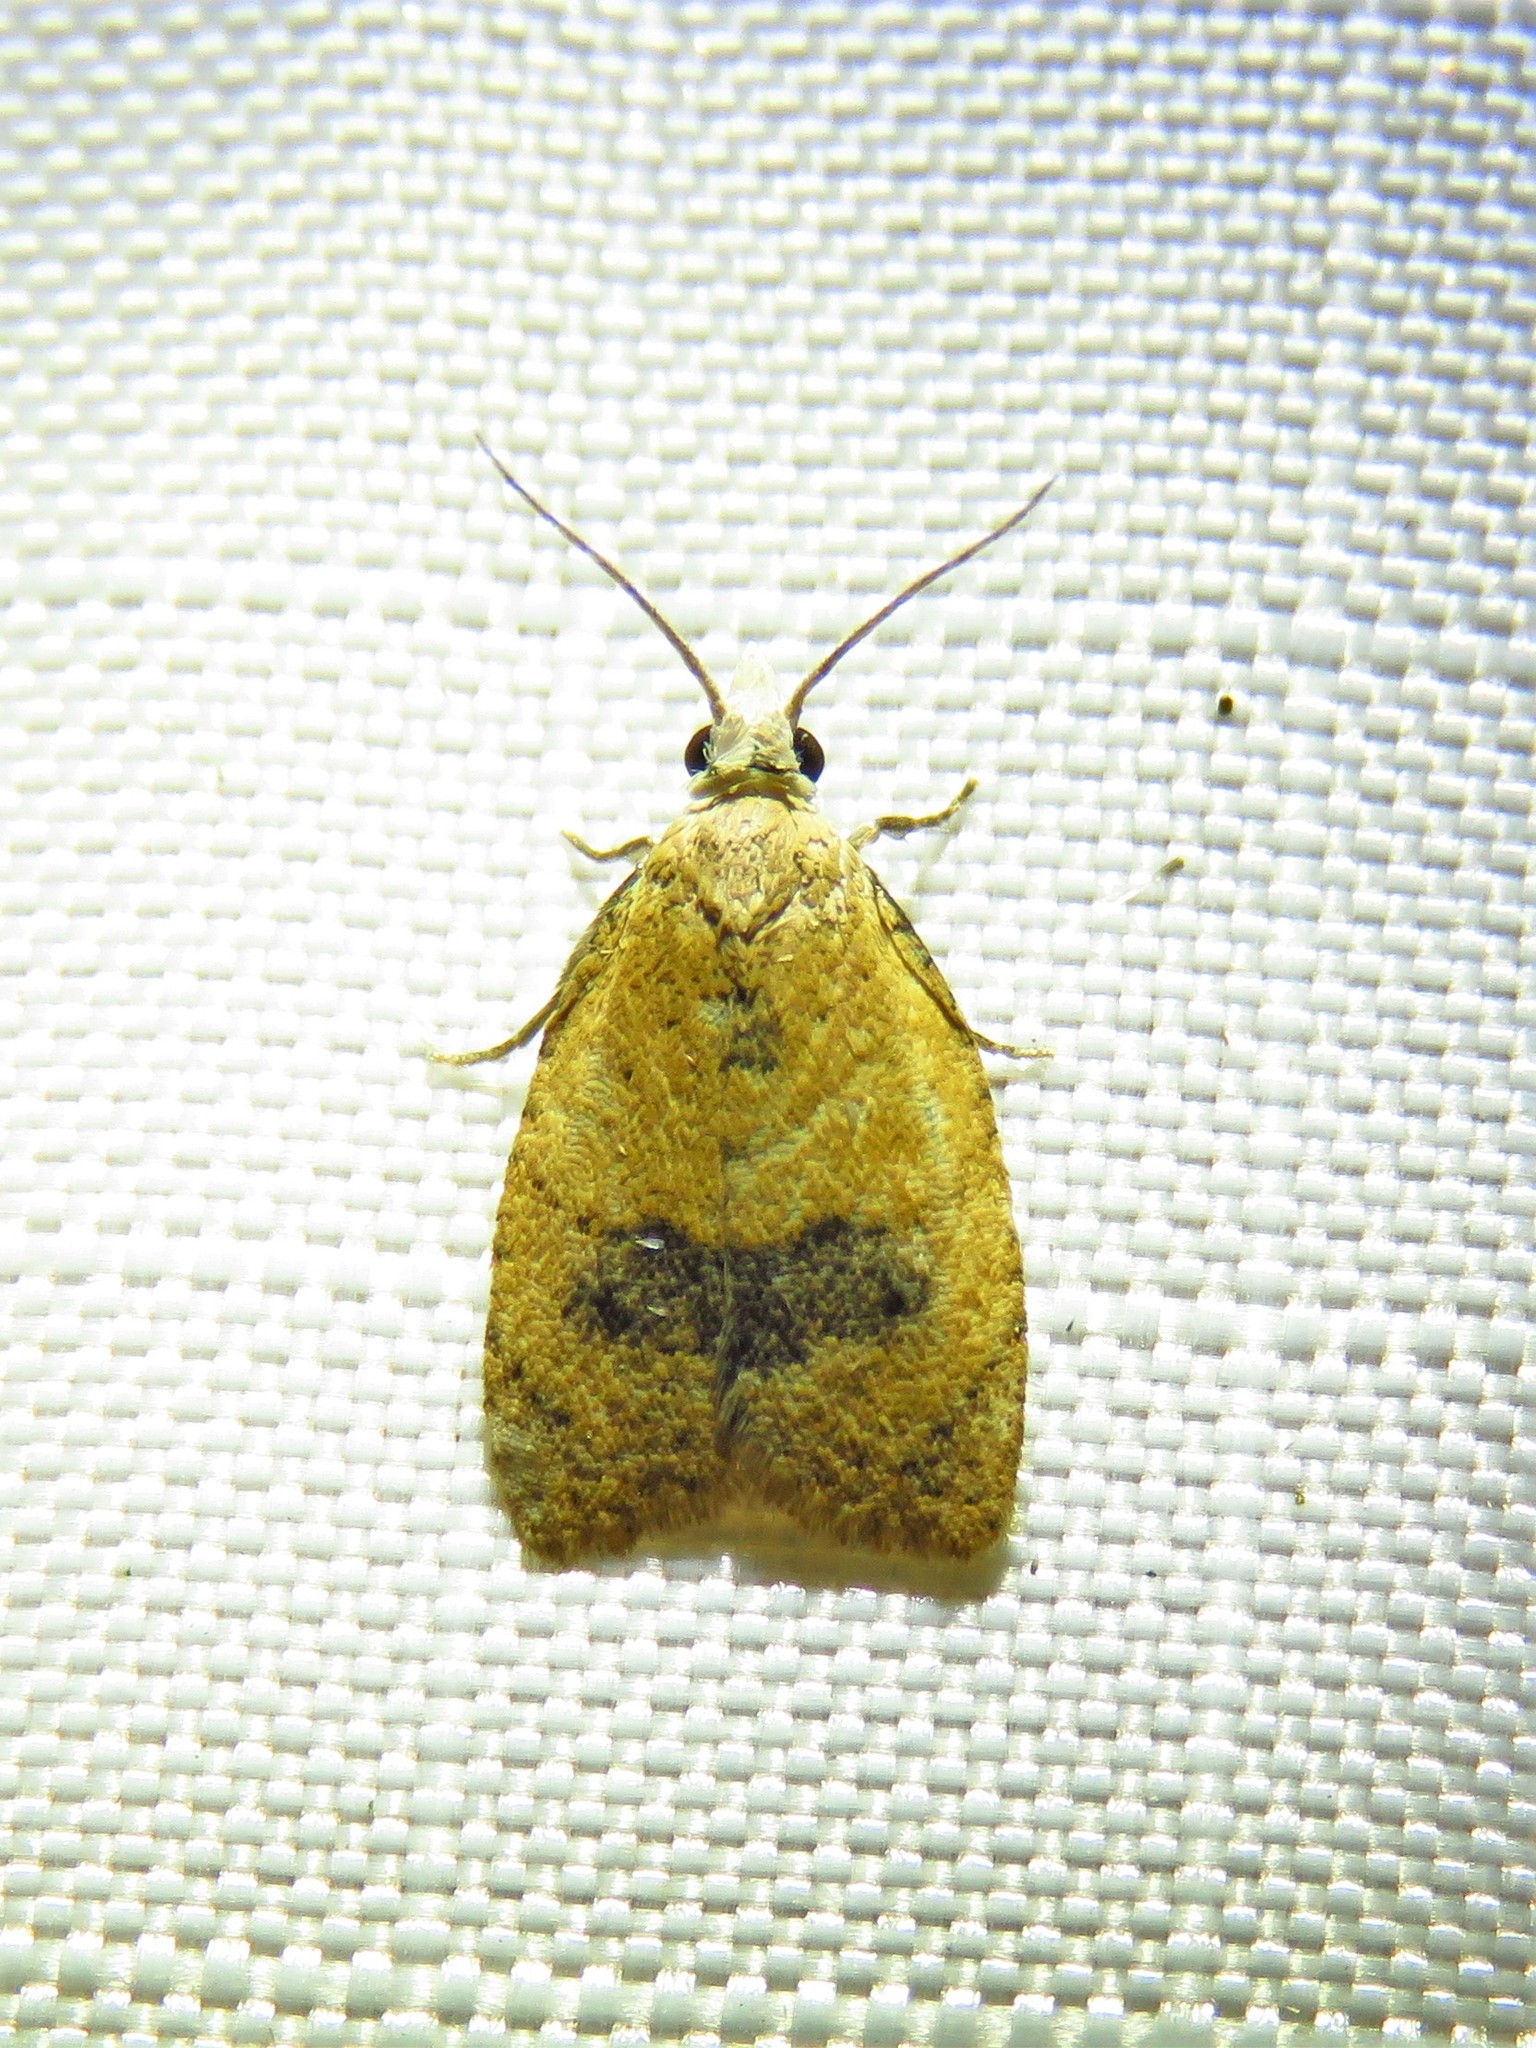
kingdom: Animalia
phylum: Arthropoda
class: Insecta
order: Lepidoptera
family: Tortricidae
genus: Sparganothoides
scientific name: Sparganothoides lentiginosana
